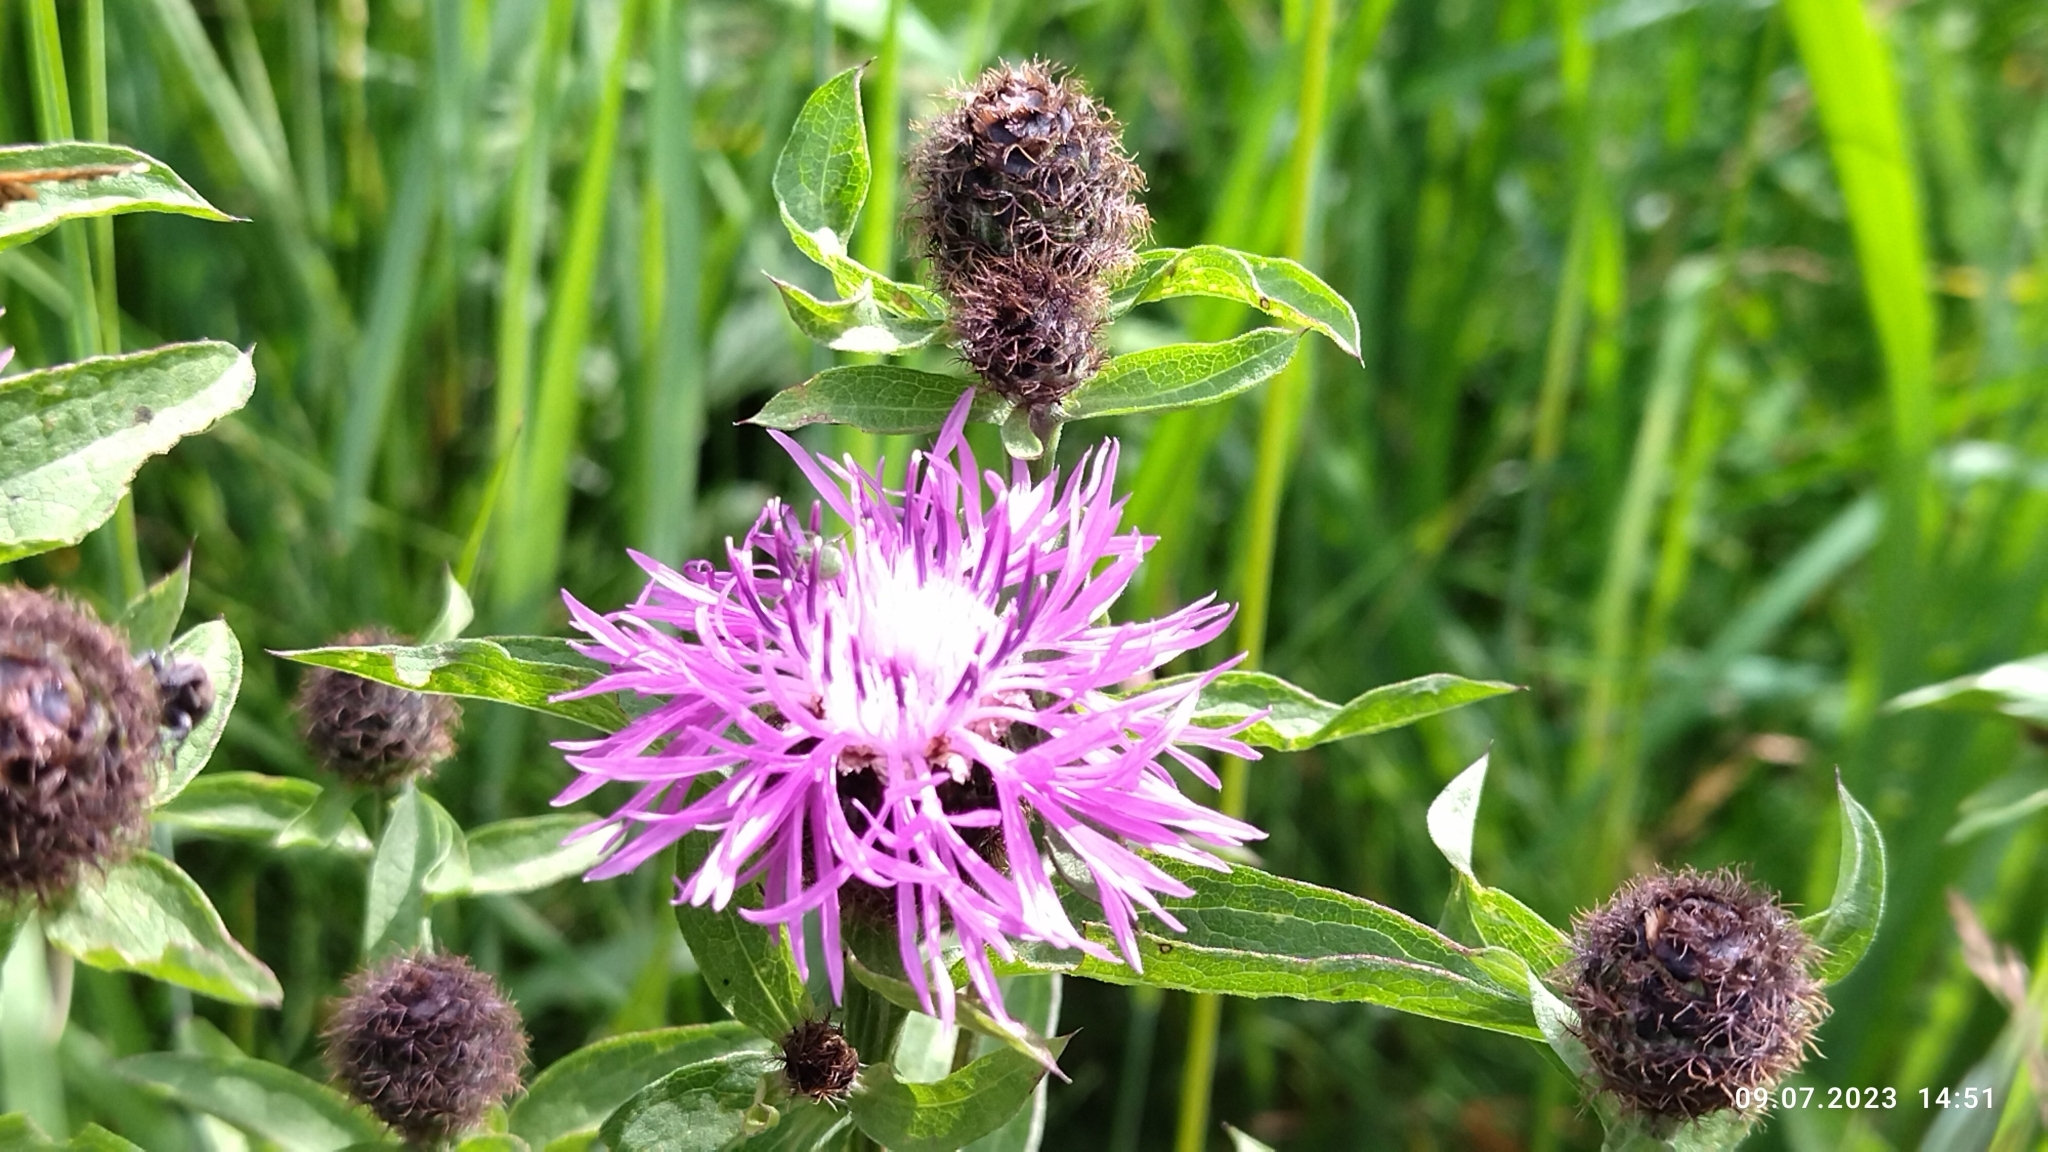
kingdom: Plantae
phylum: Tracheophyta
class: Magnoliopsida
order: Asterales
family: Asteraceae
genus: Centaurea
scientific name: Centaurea phrygia
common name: Wig knapweed
